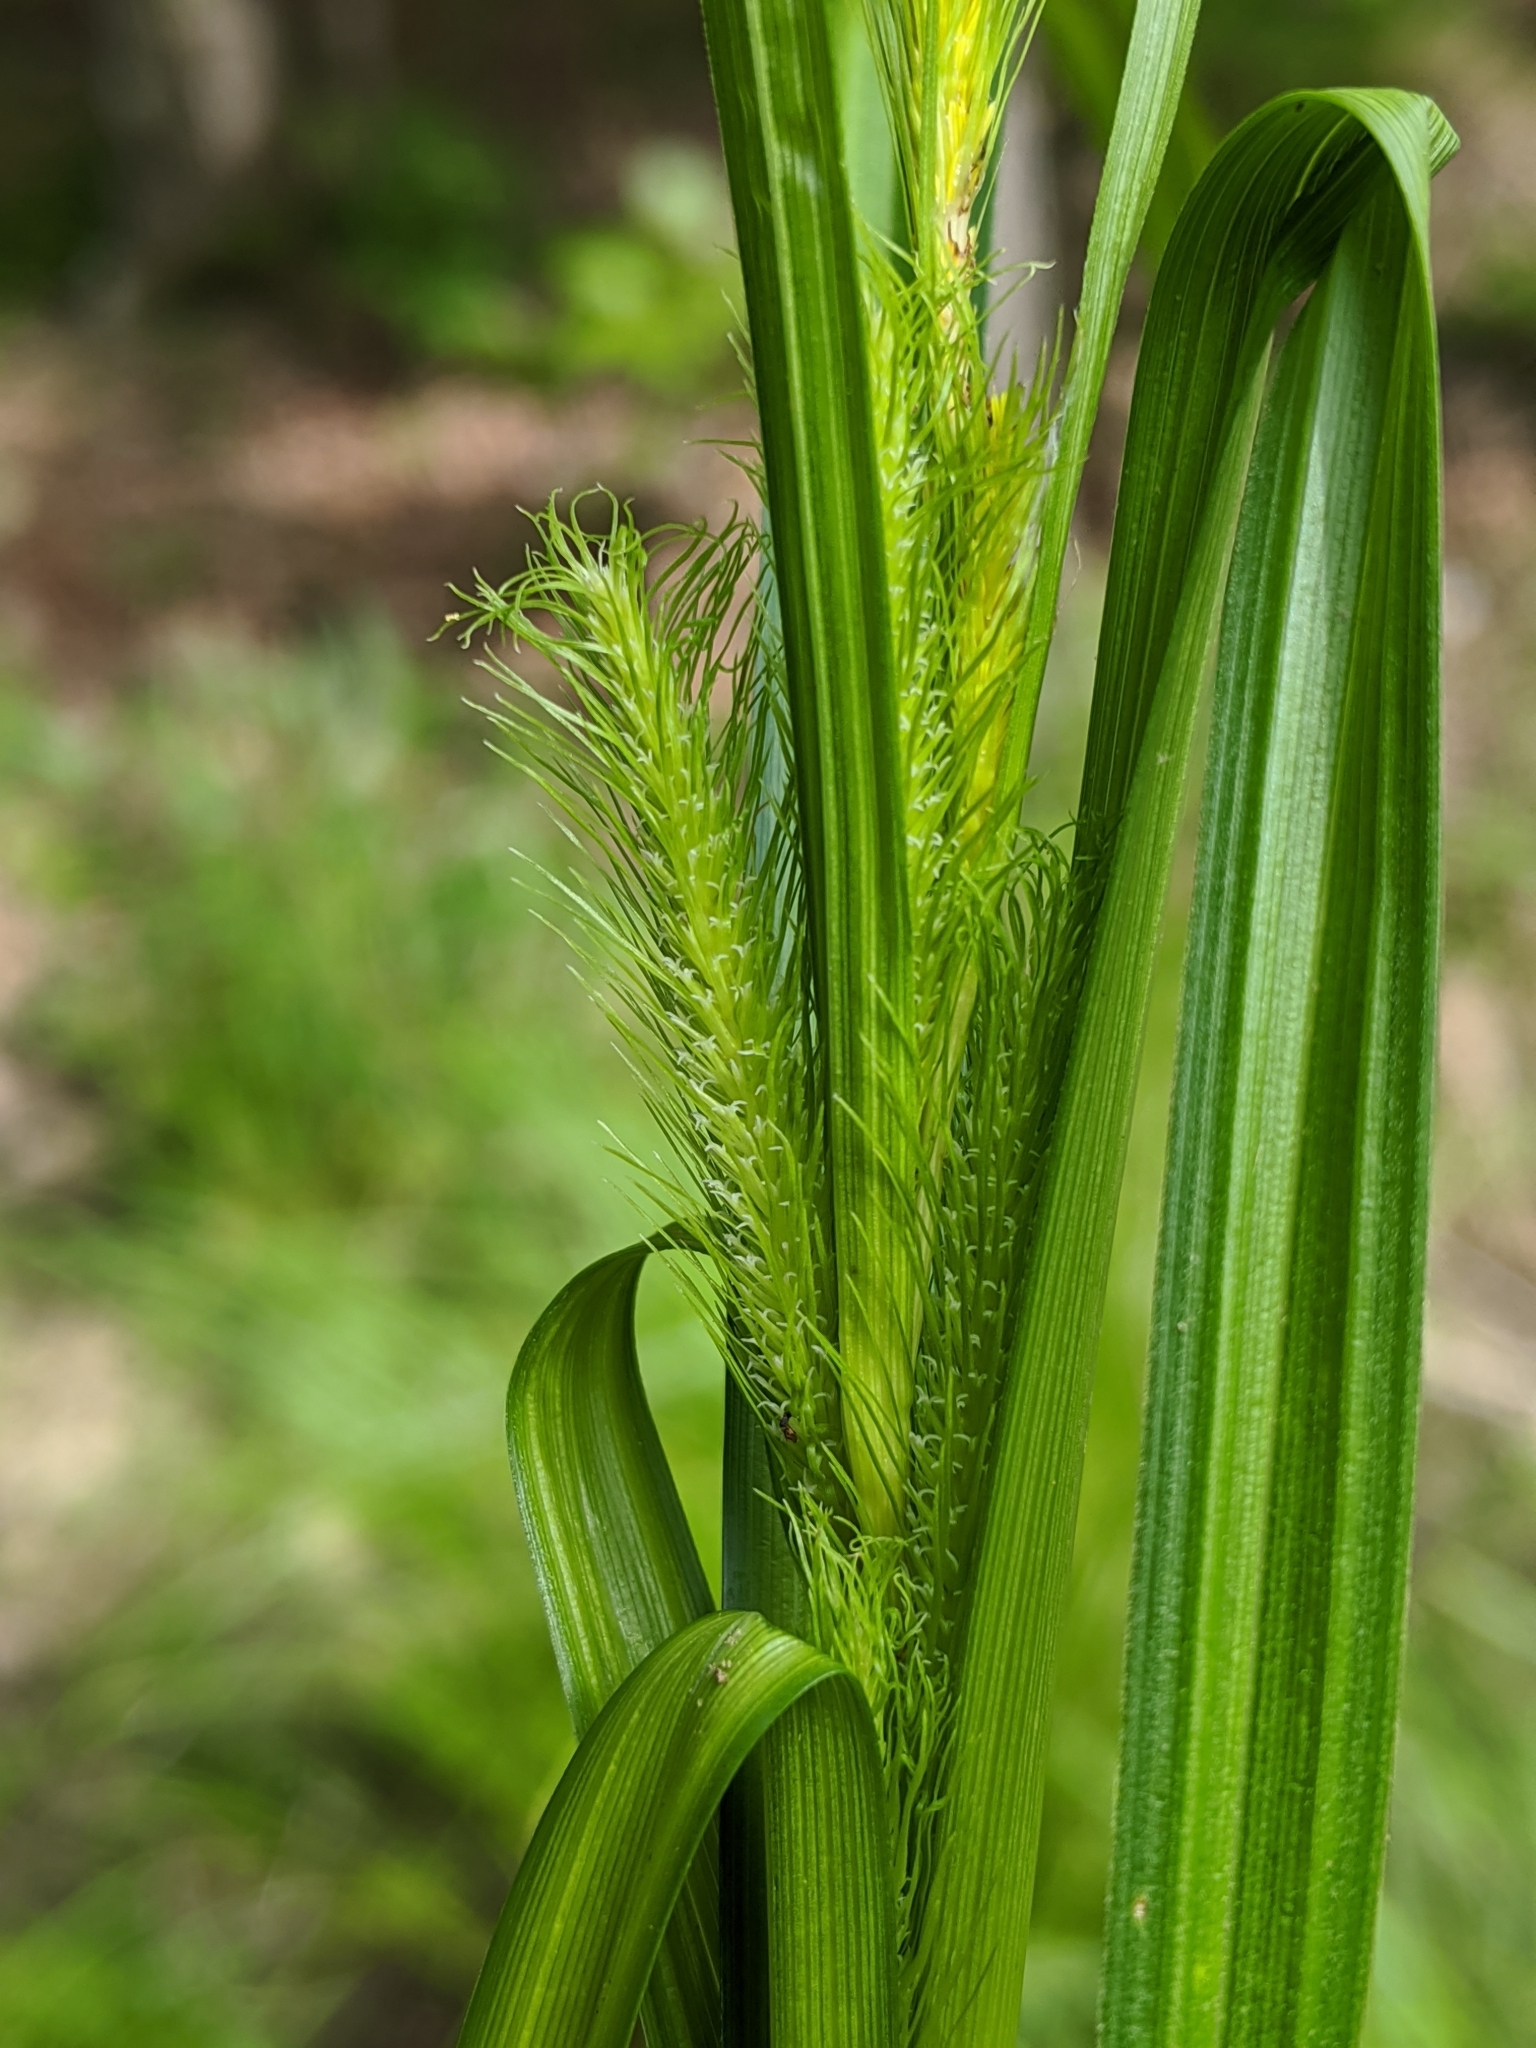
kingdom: Plantae
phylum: Tracheophyta
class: Liliopsida
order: Poales
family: Cyperaceae
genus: Carex
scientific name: Carex crinita
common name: Fringed sedge
